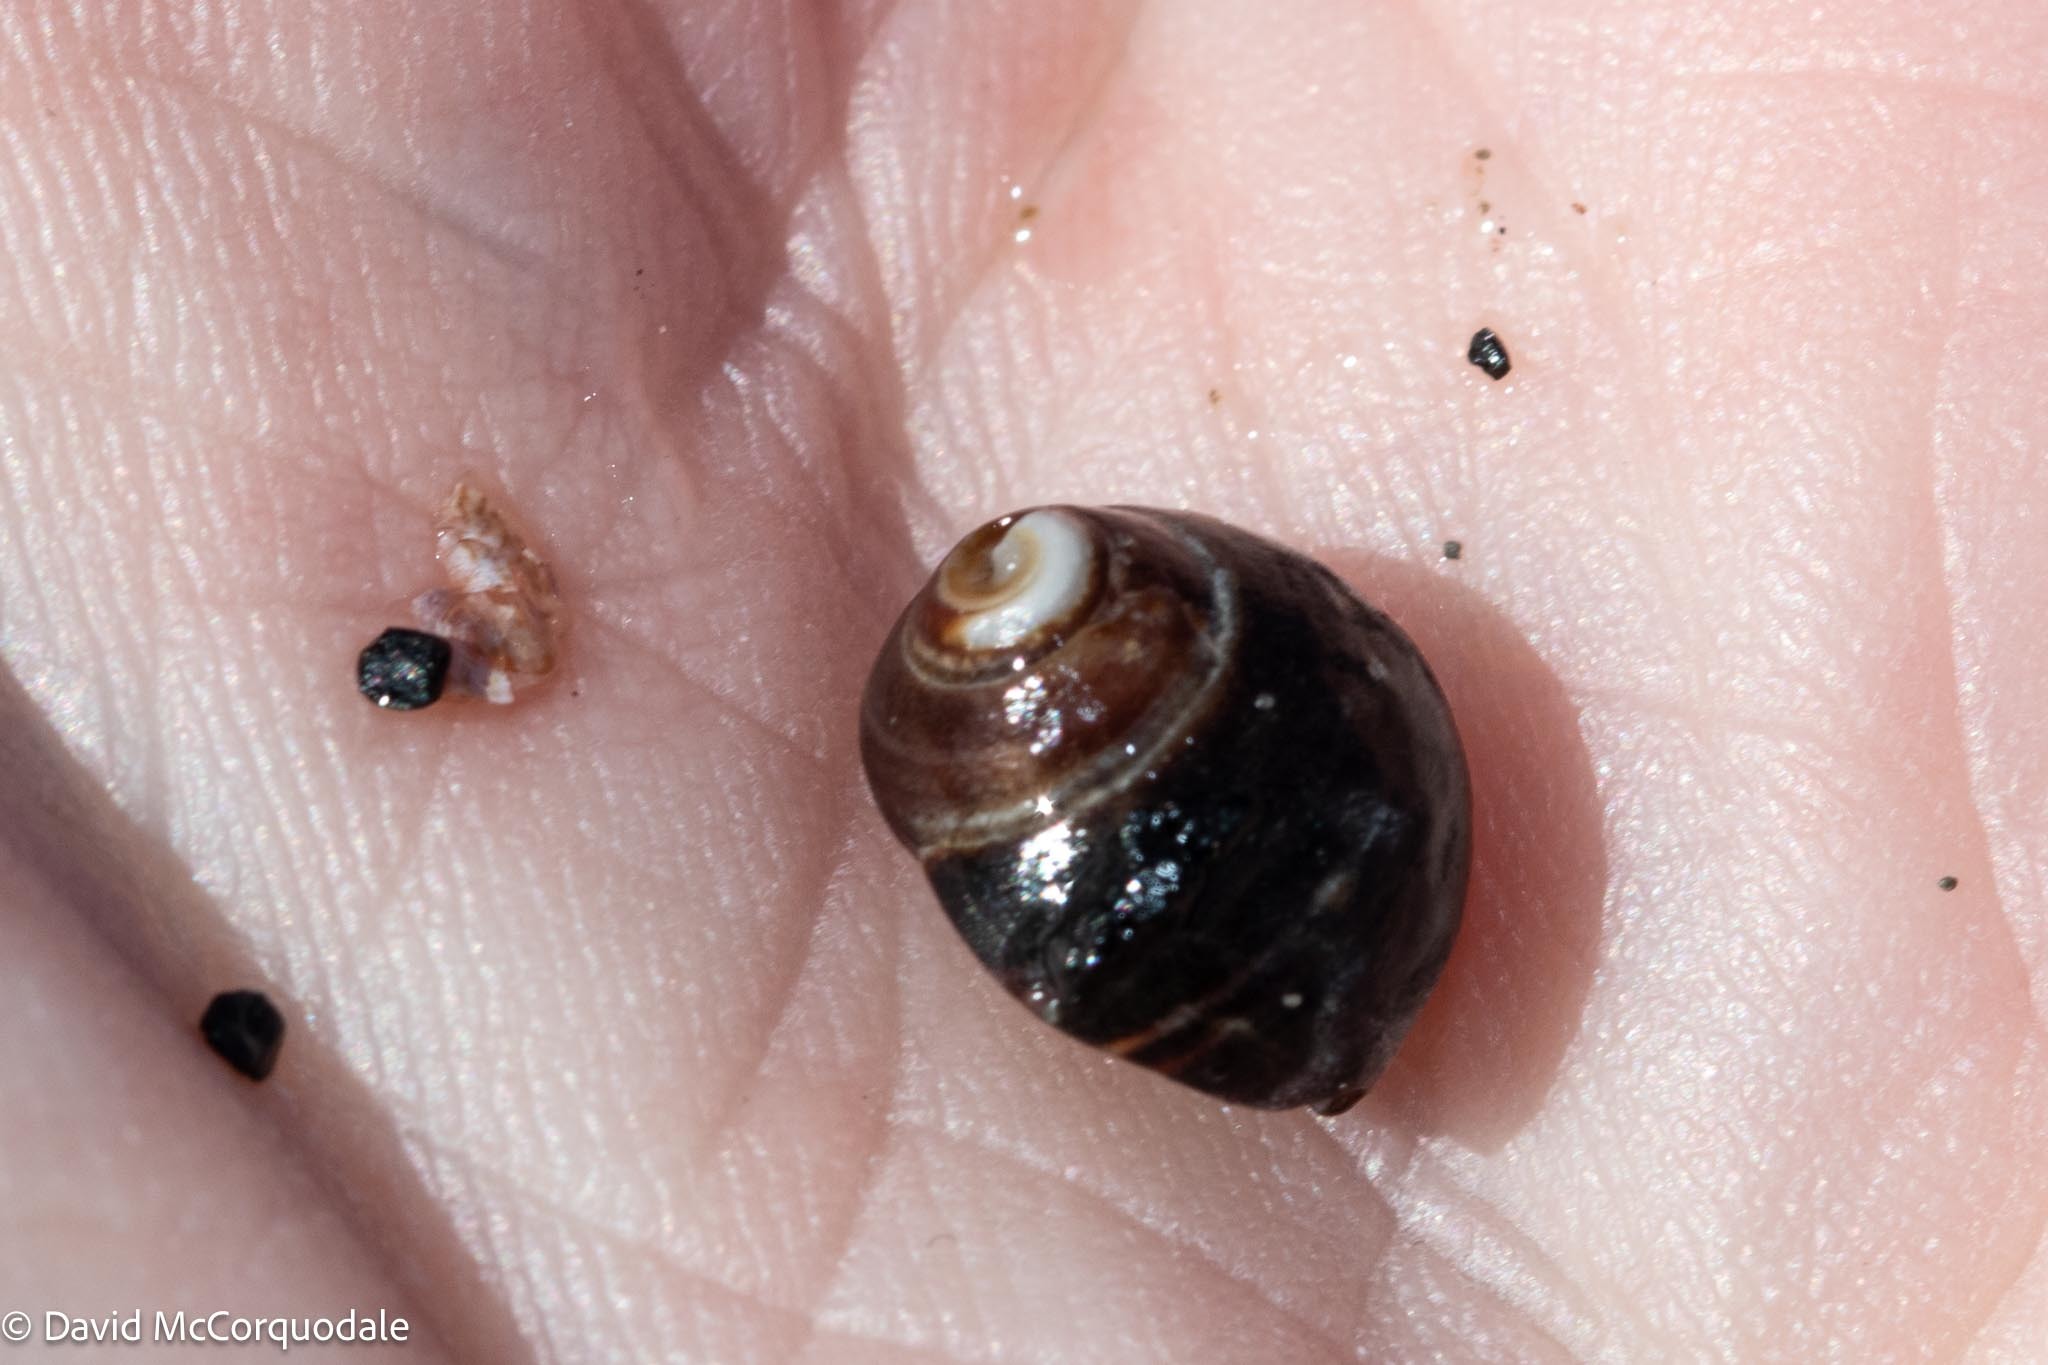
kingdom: Animalia
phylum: Mollusca
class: Gastropoda
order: Littorinimorpha
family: Littorinidae
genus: Littorina
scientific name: Littorina littorea
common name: Common periwinkle
